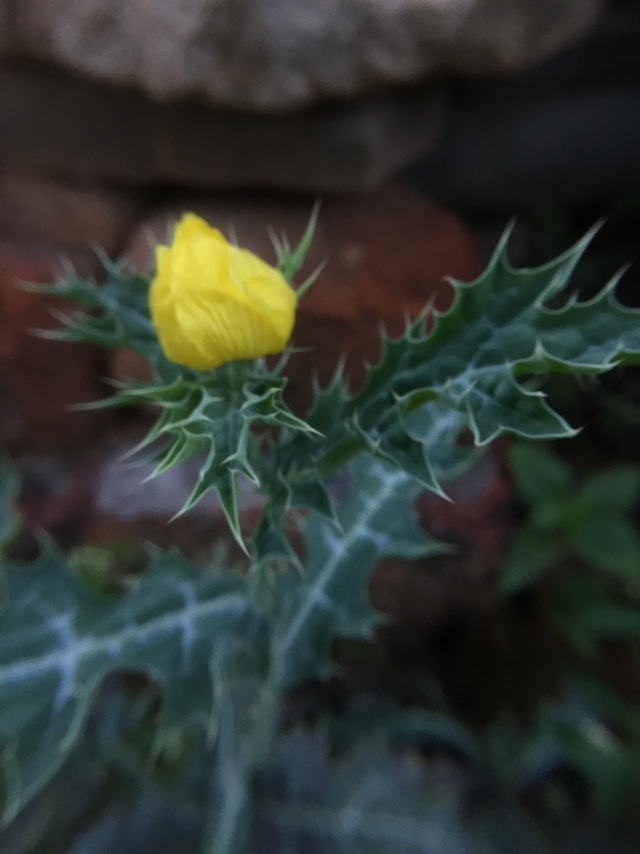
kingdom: Plantae
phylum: Tracheophyta
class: Magnoliopsida
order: Ranunculales
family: Papaveraceae
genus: Argemone
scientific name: Argemone mexicana
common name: Mexican poppy
